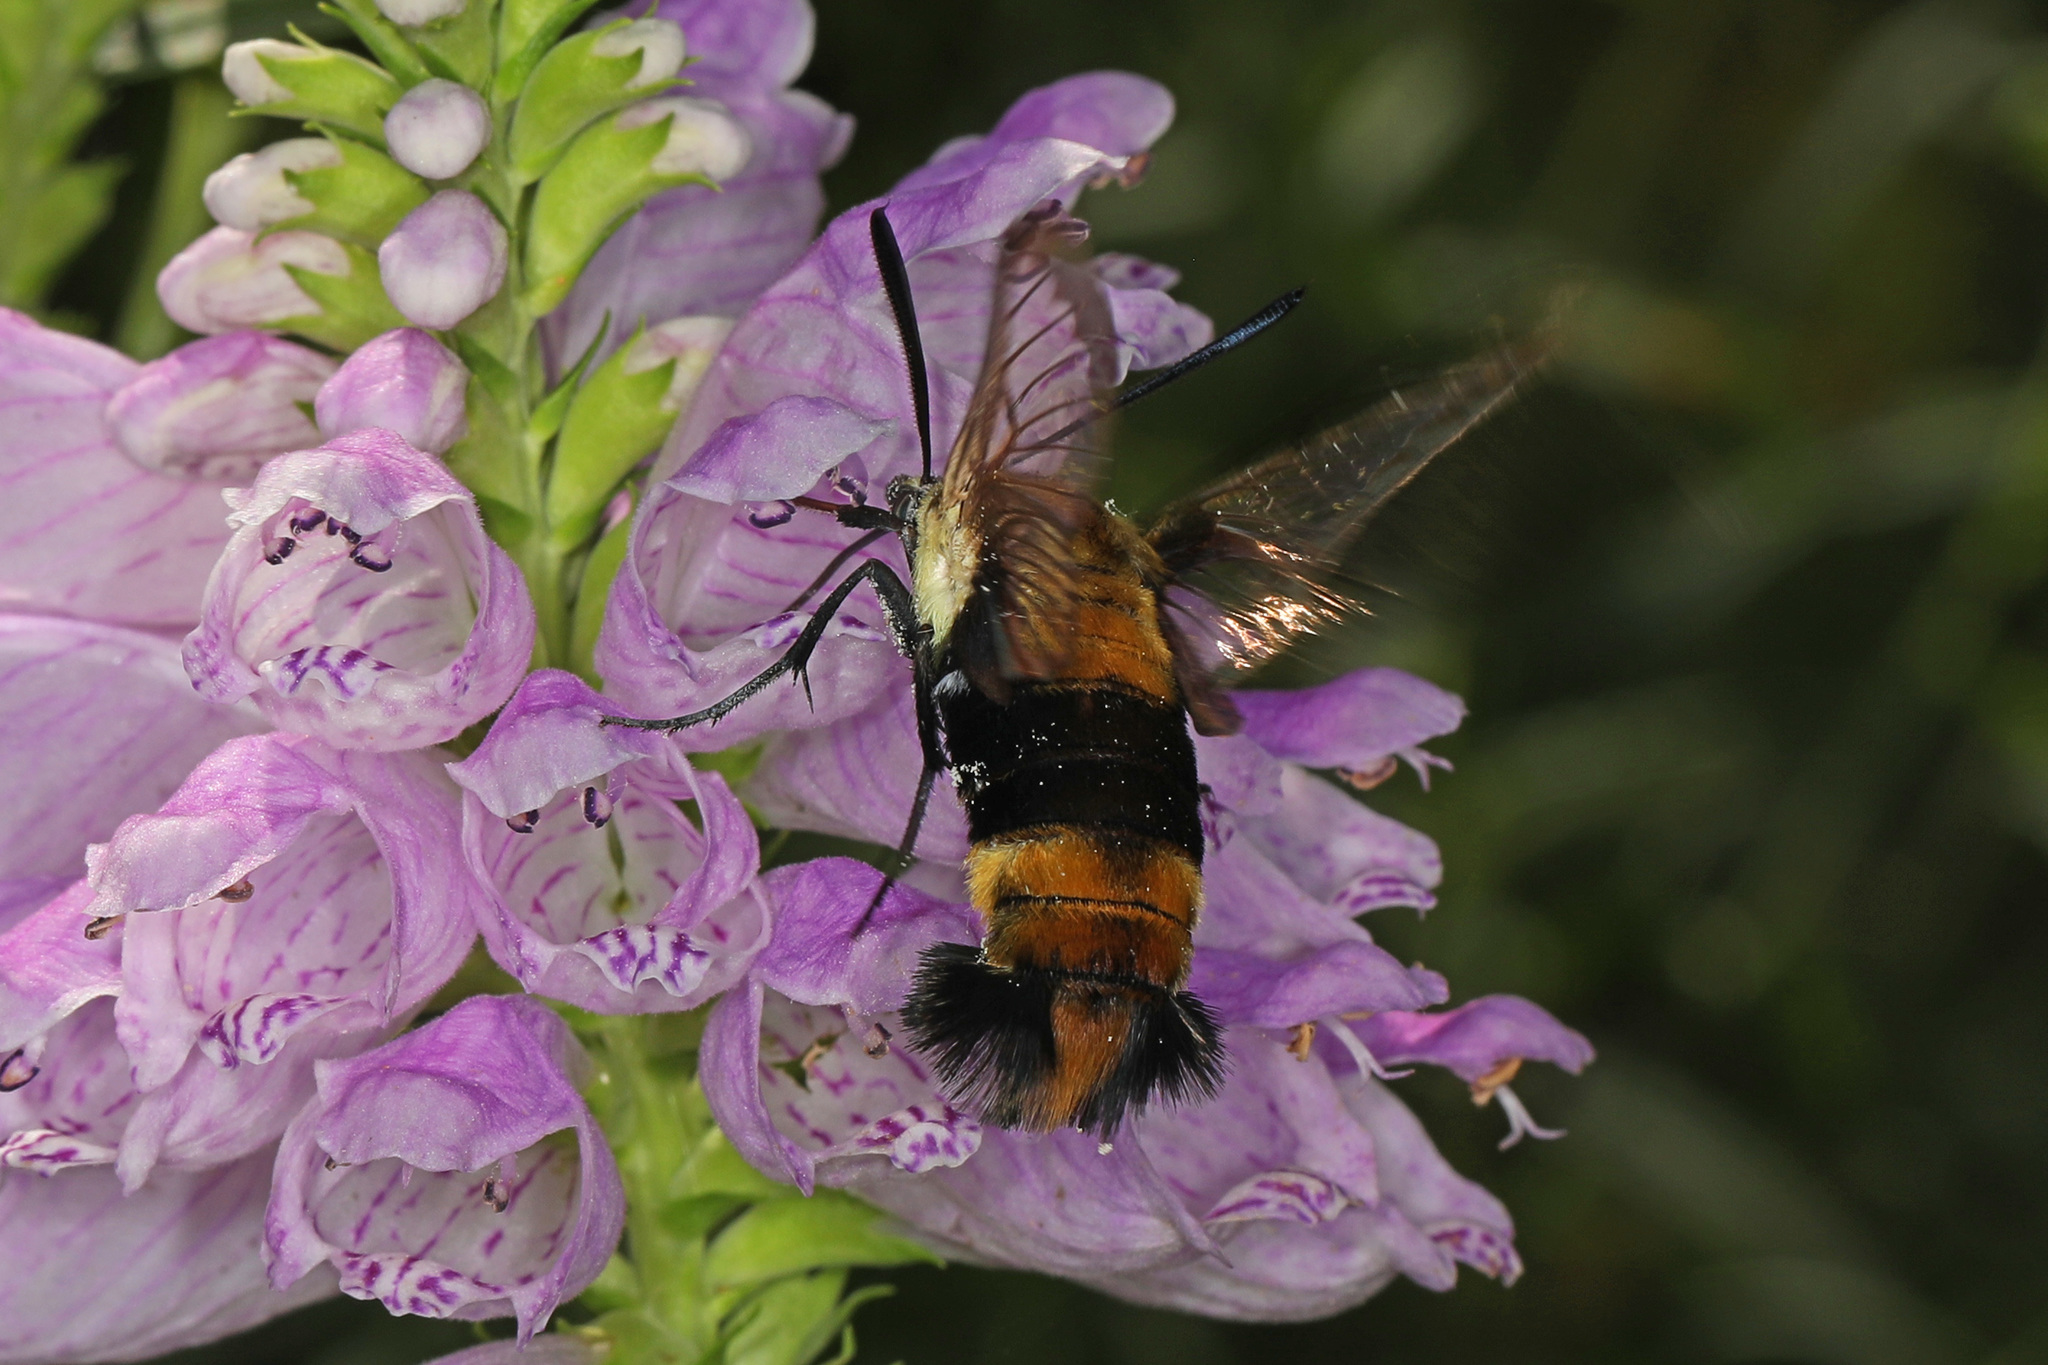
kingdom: Animalia
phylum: Arthropoda
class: Insecta
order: Lepidoptera
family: Sphingidae
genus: Hemaris
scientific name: Hemaris diffinis
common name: Bumblebee moth
